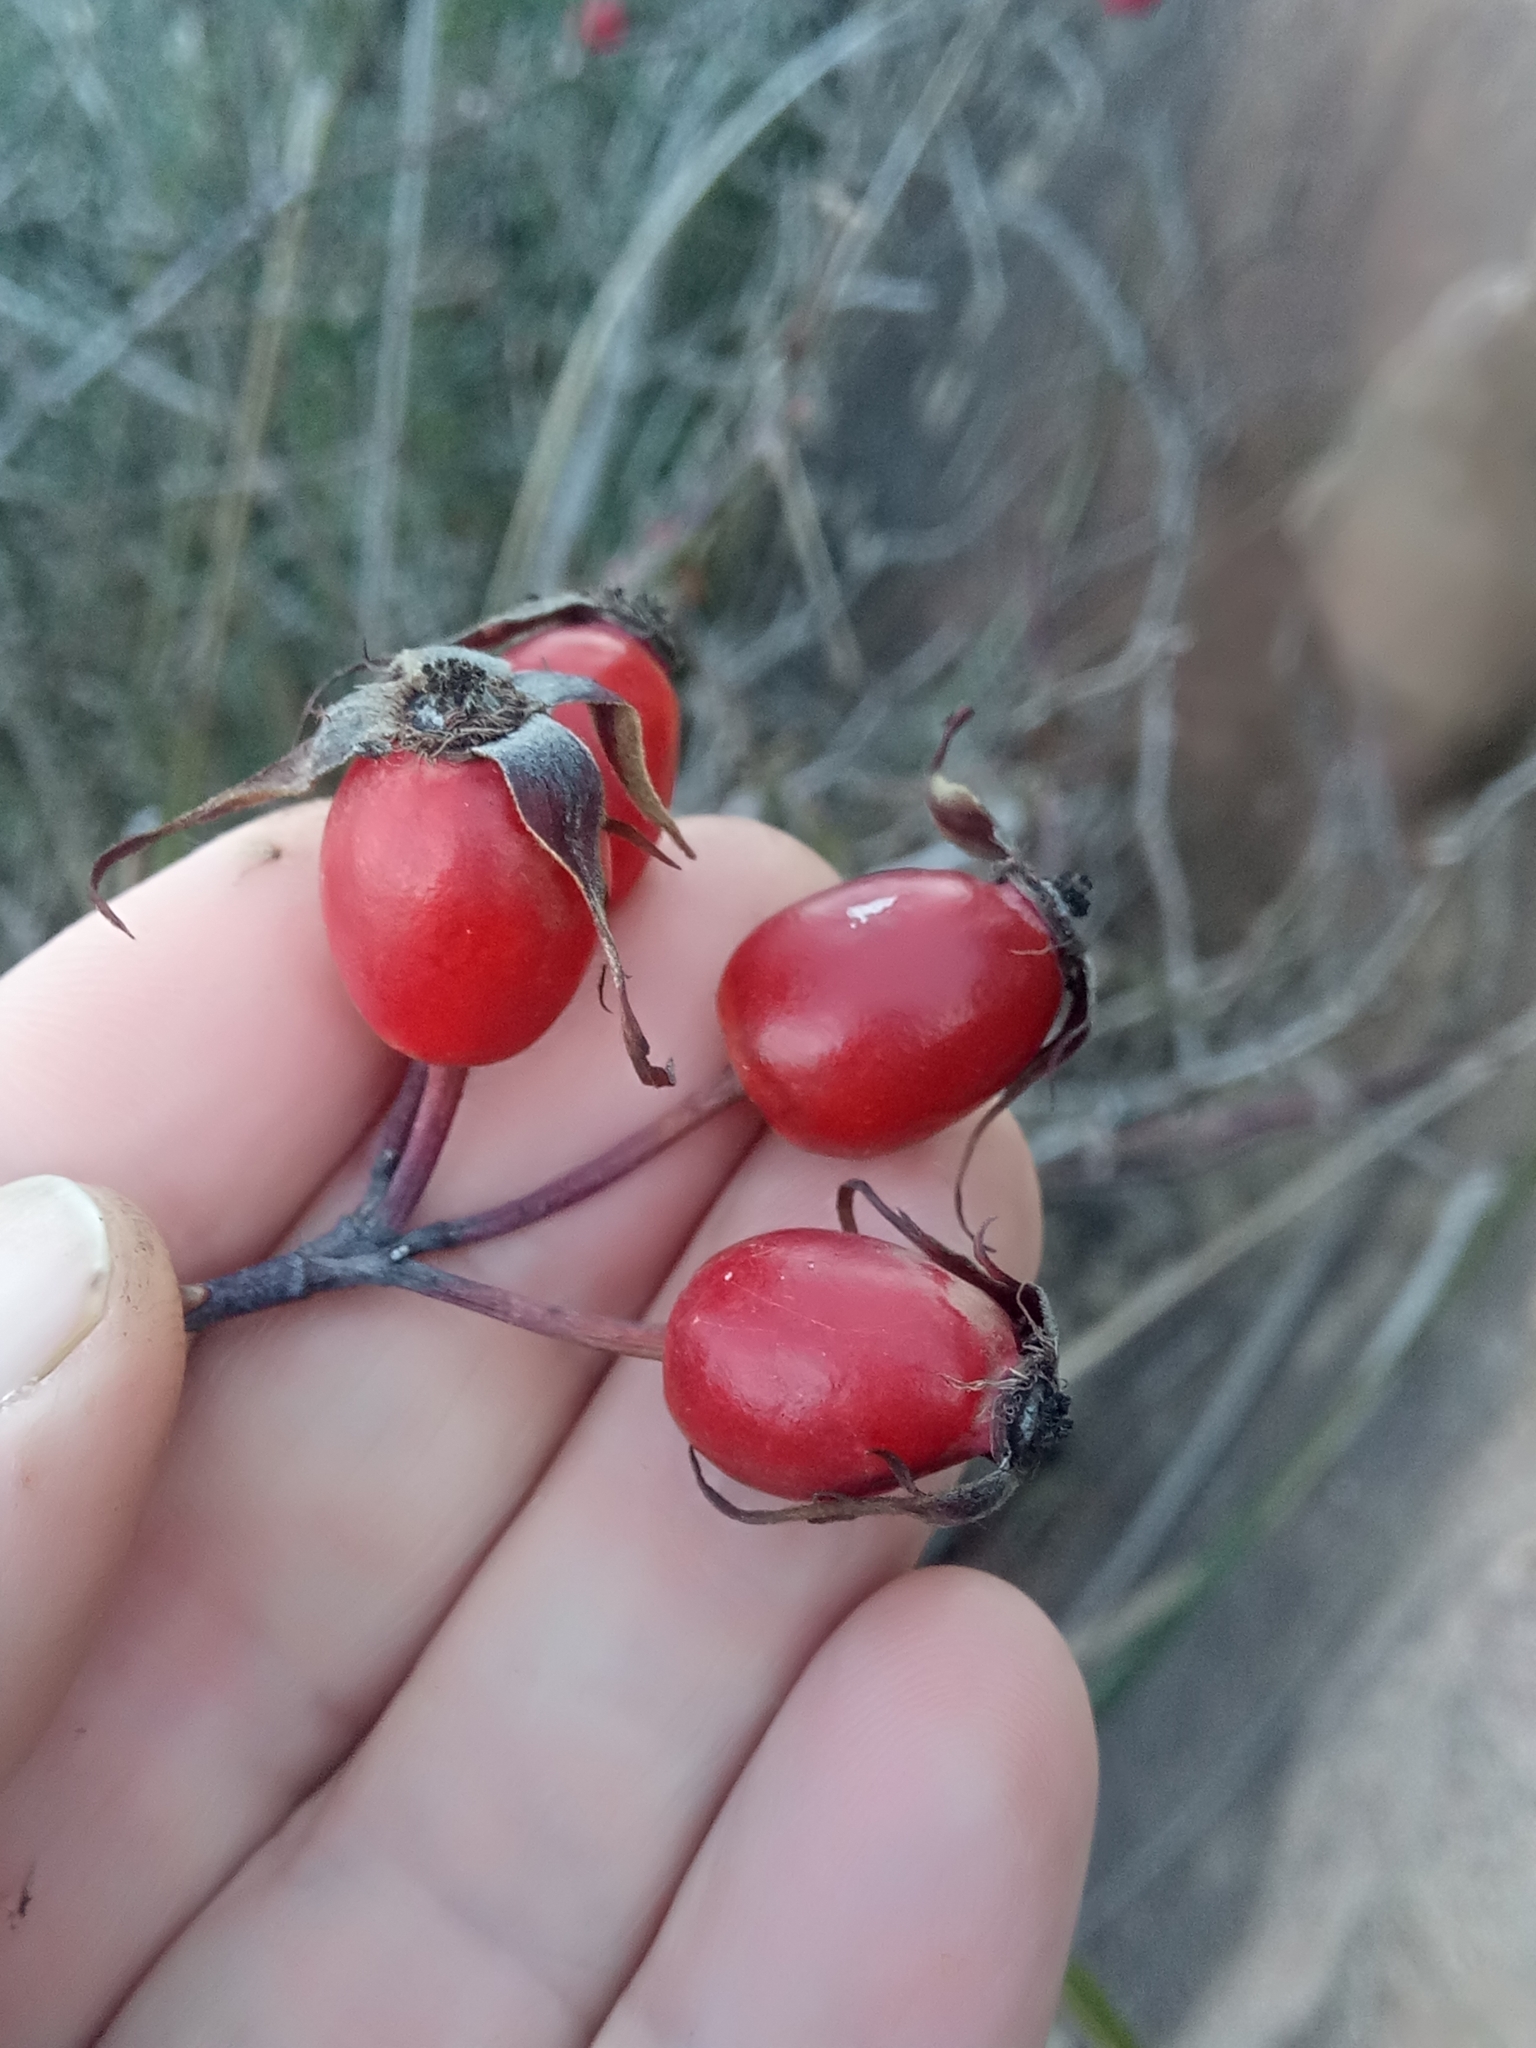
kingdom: Plantae
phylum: Tracheophyta
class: Magnoliopsida
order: Rosales
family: Rosaceae
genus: Rosa
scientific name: Rosa corymbifera
